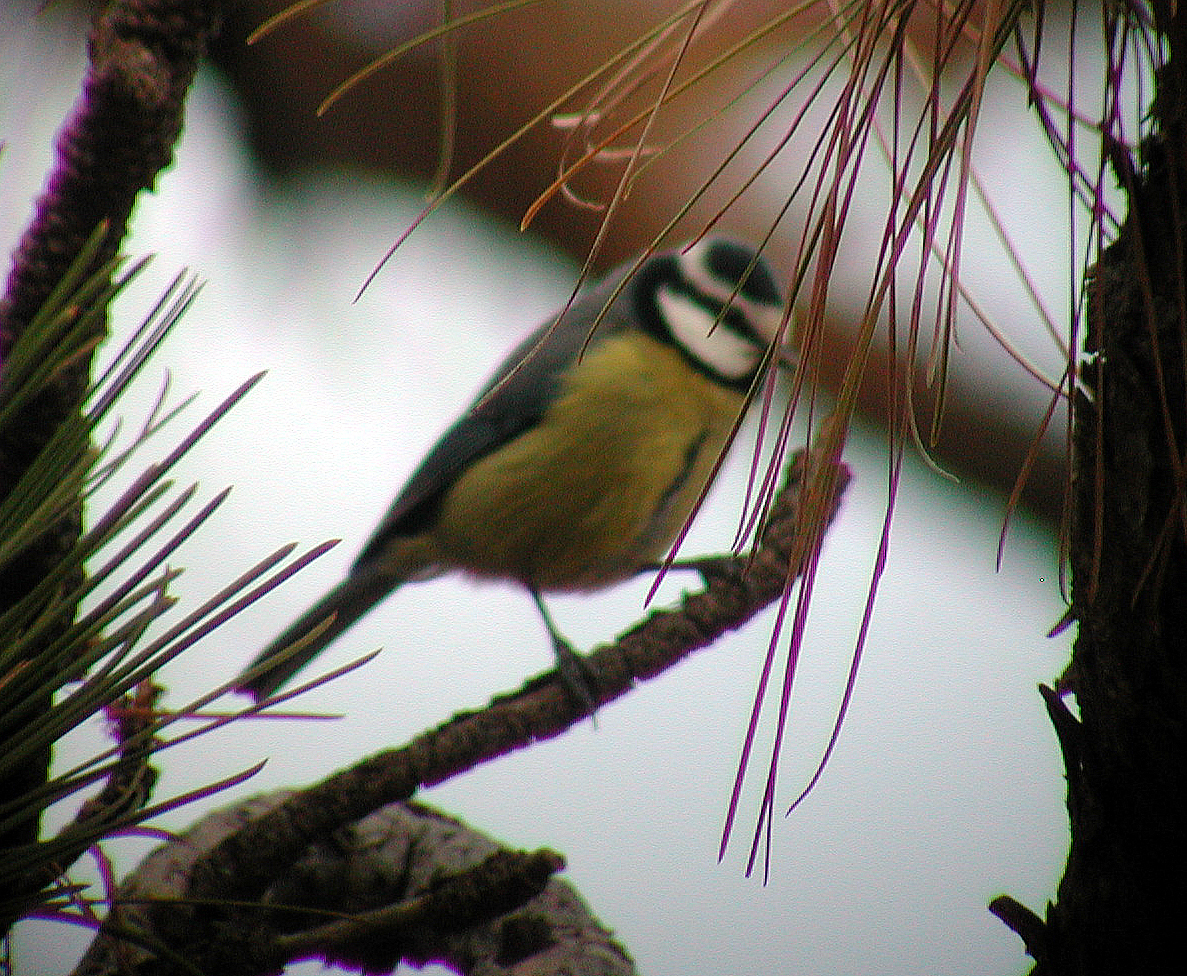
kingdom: Animalia
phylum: Chordata
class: Aves
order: Passeriformes
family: Paridae
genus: Cyanistes
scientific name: Cyanistes teneriffae
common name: African blue tit
